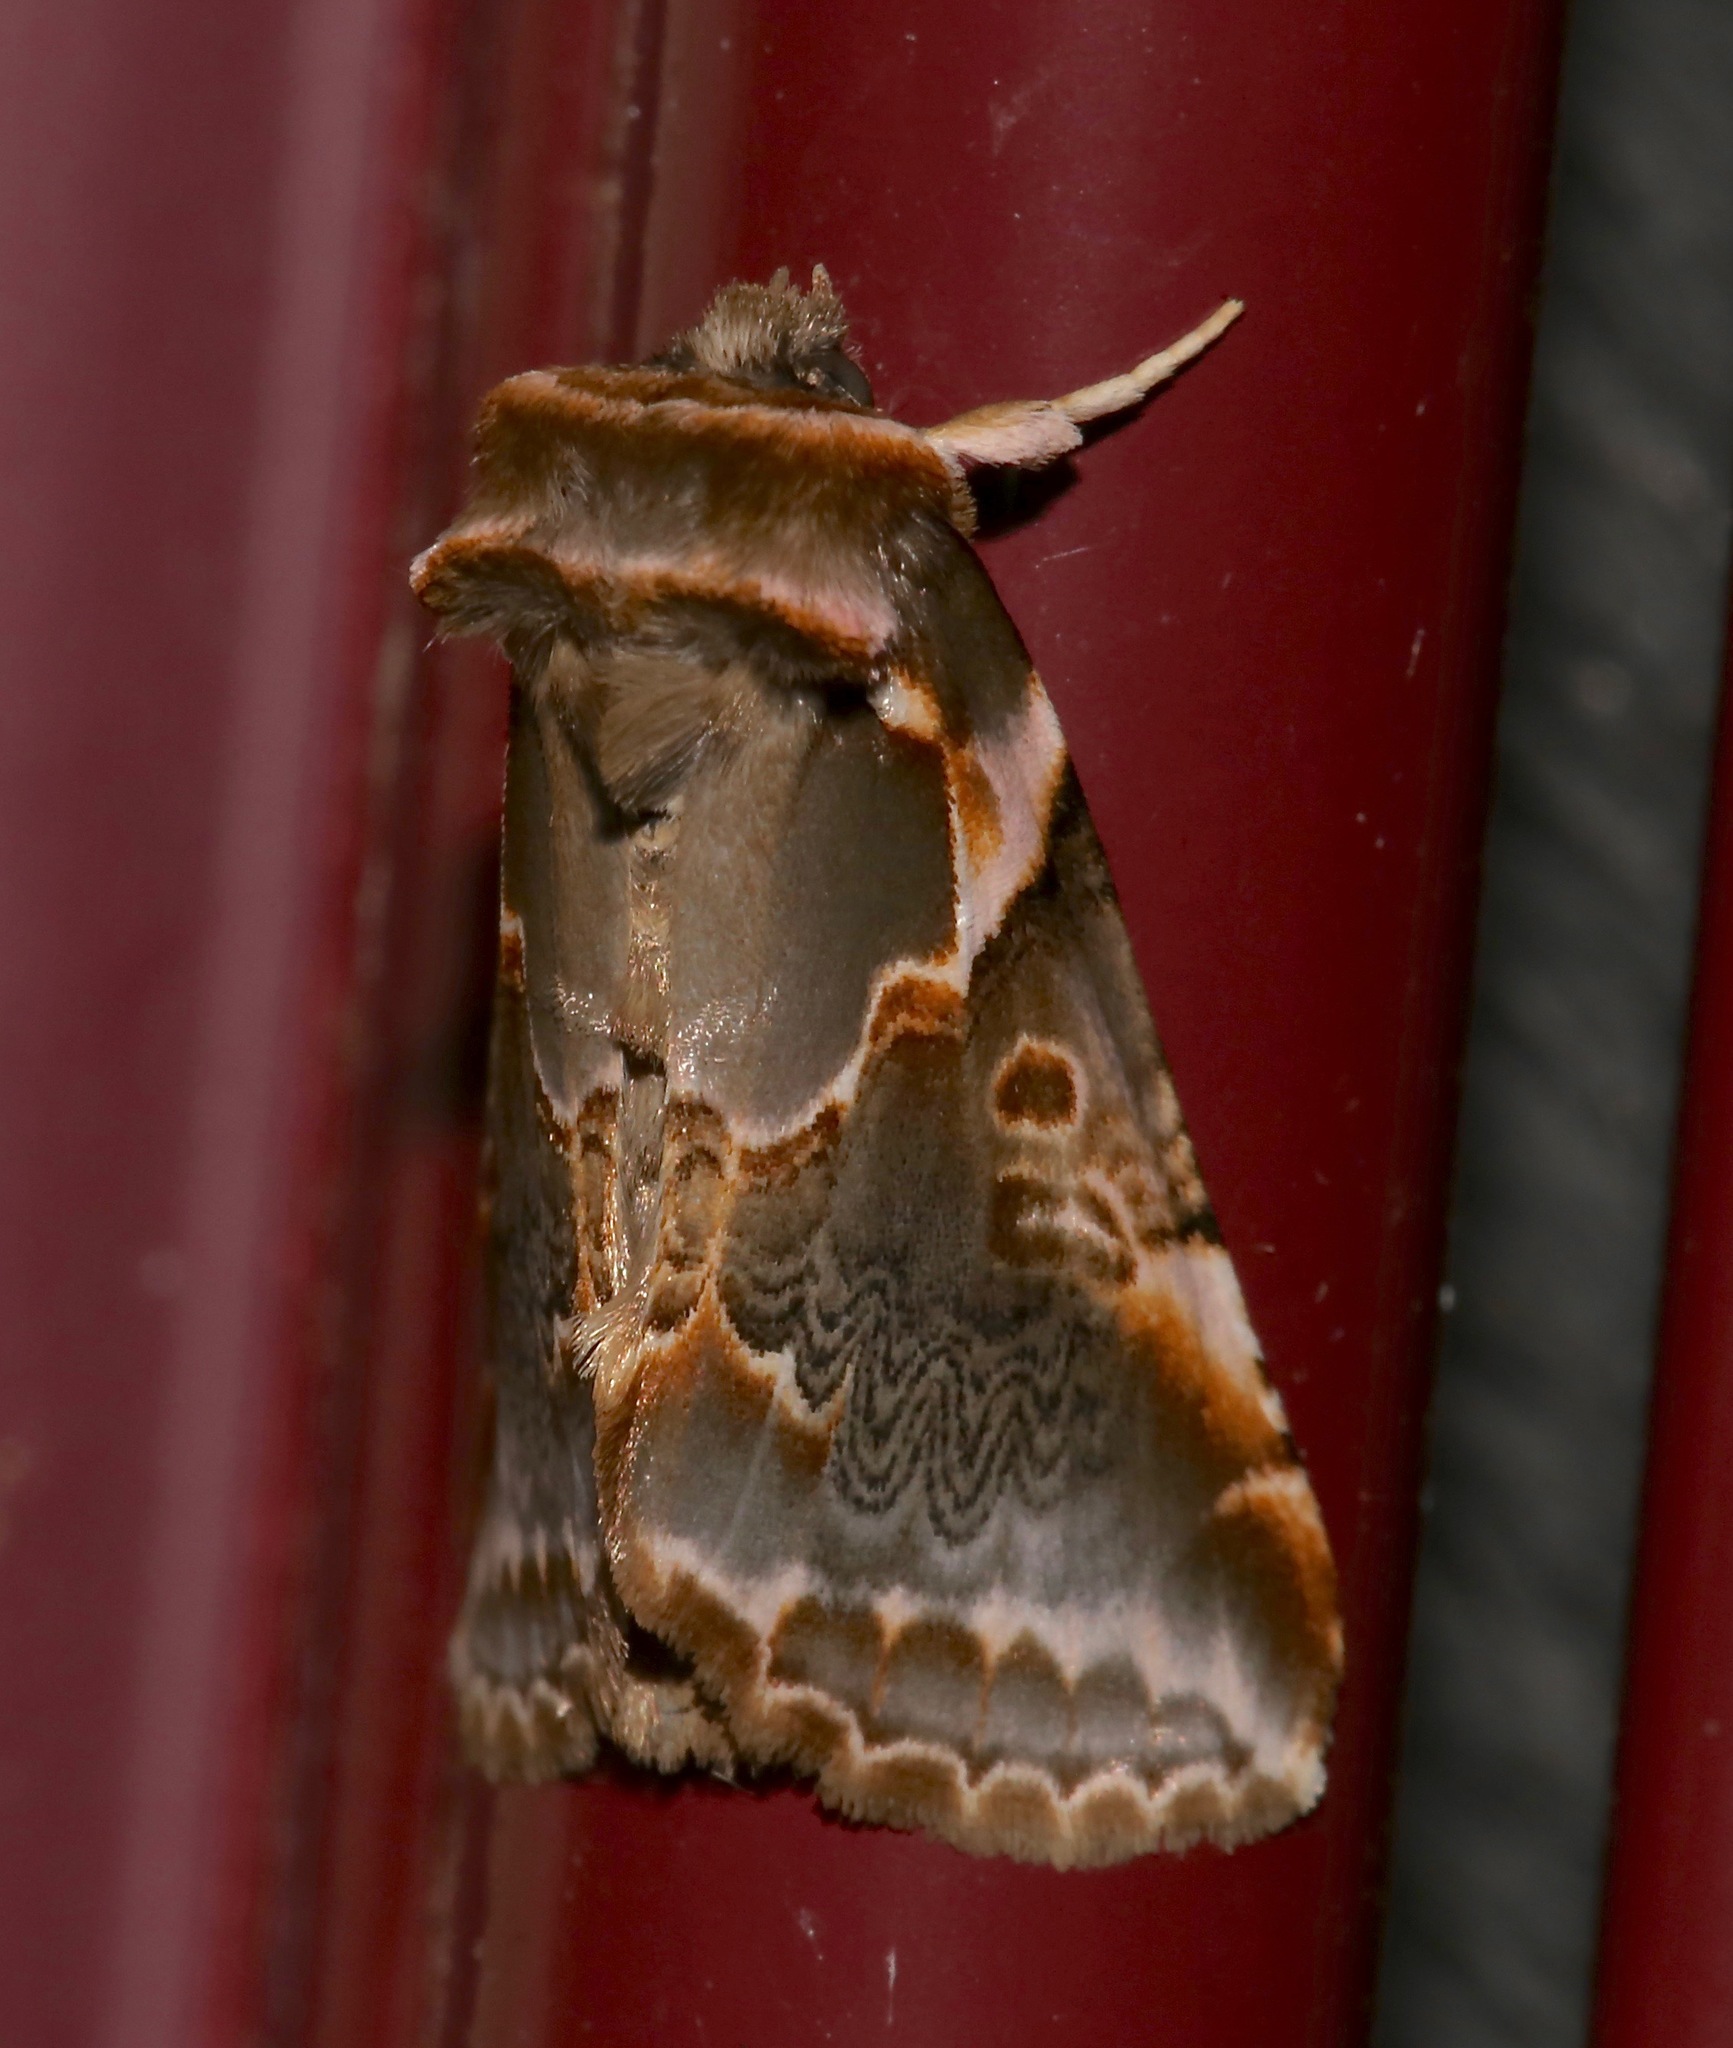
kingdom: Animalia
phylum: Arthropoda
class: Insecta
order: Lepidoptera
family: Drepanidae
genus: Habrosyne
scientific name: Habrosyne gloriosa
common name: Glorious habrosyne moth
